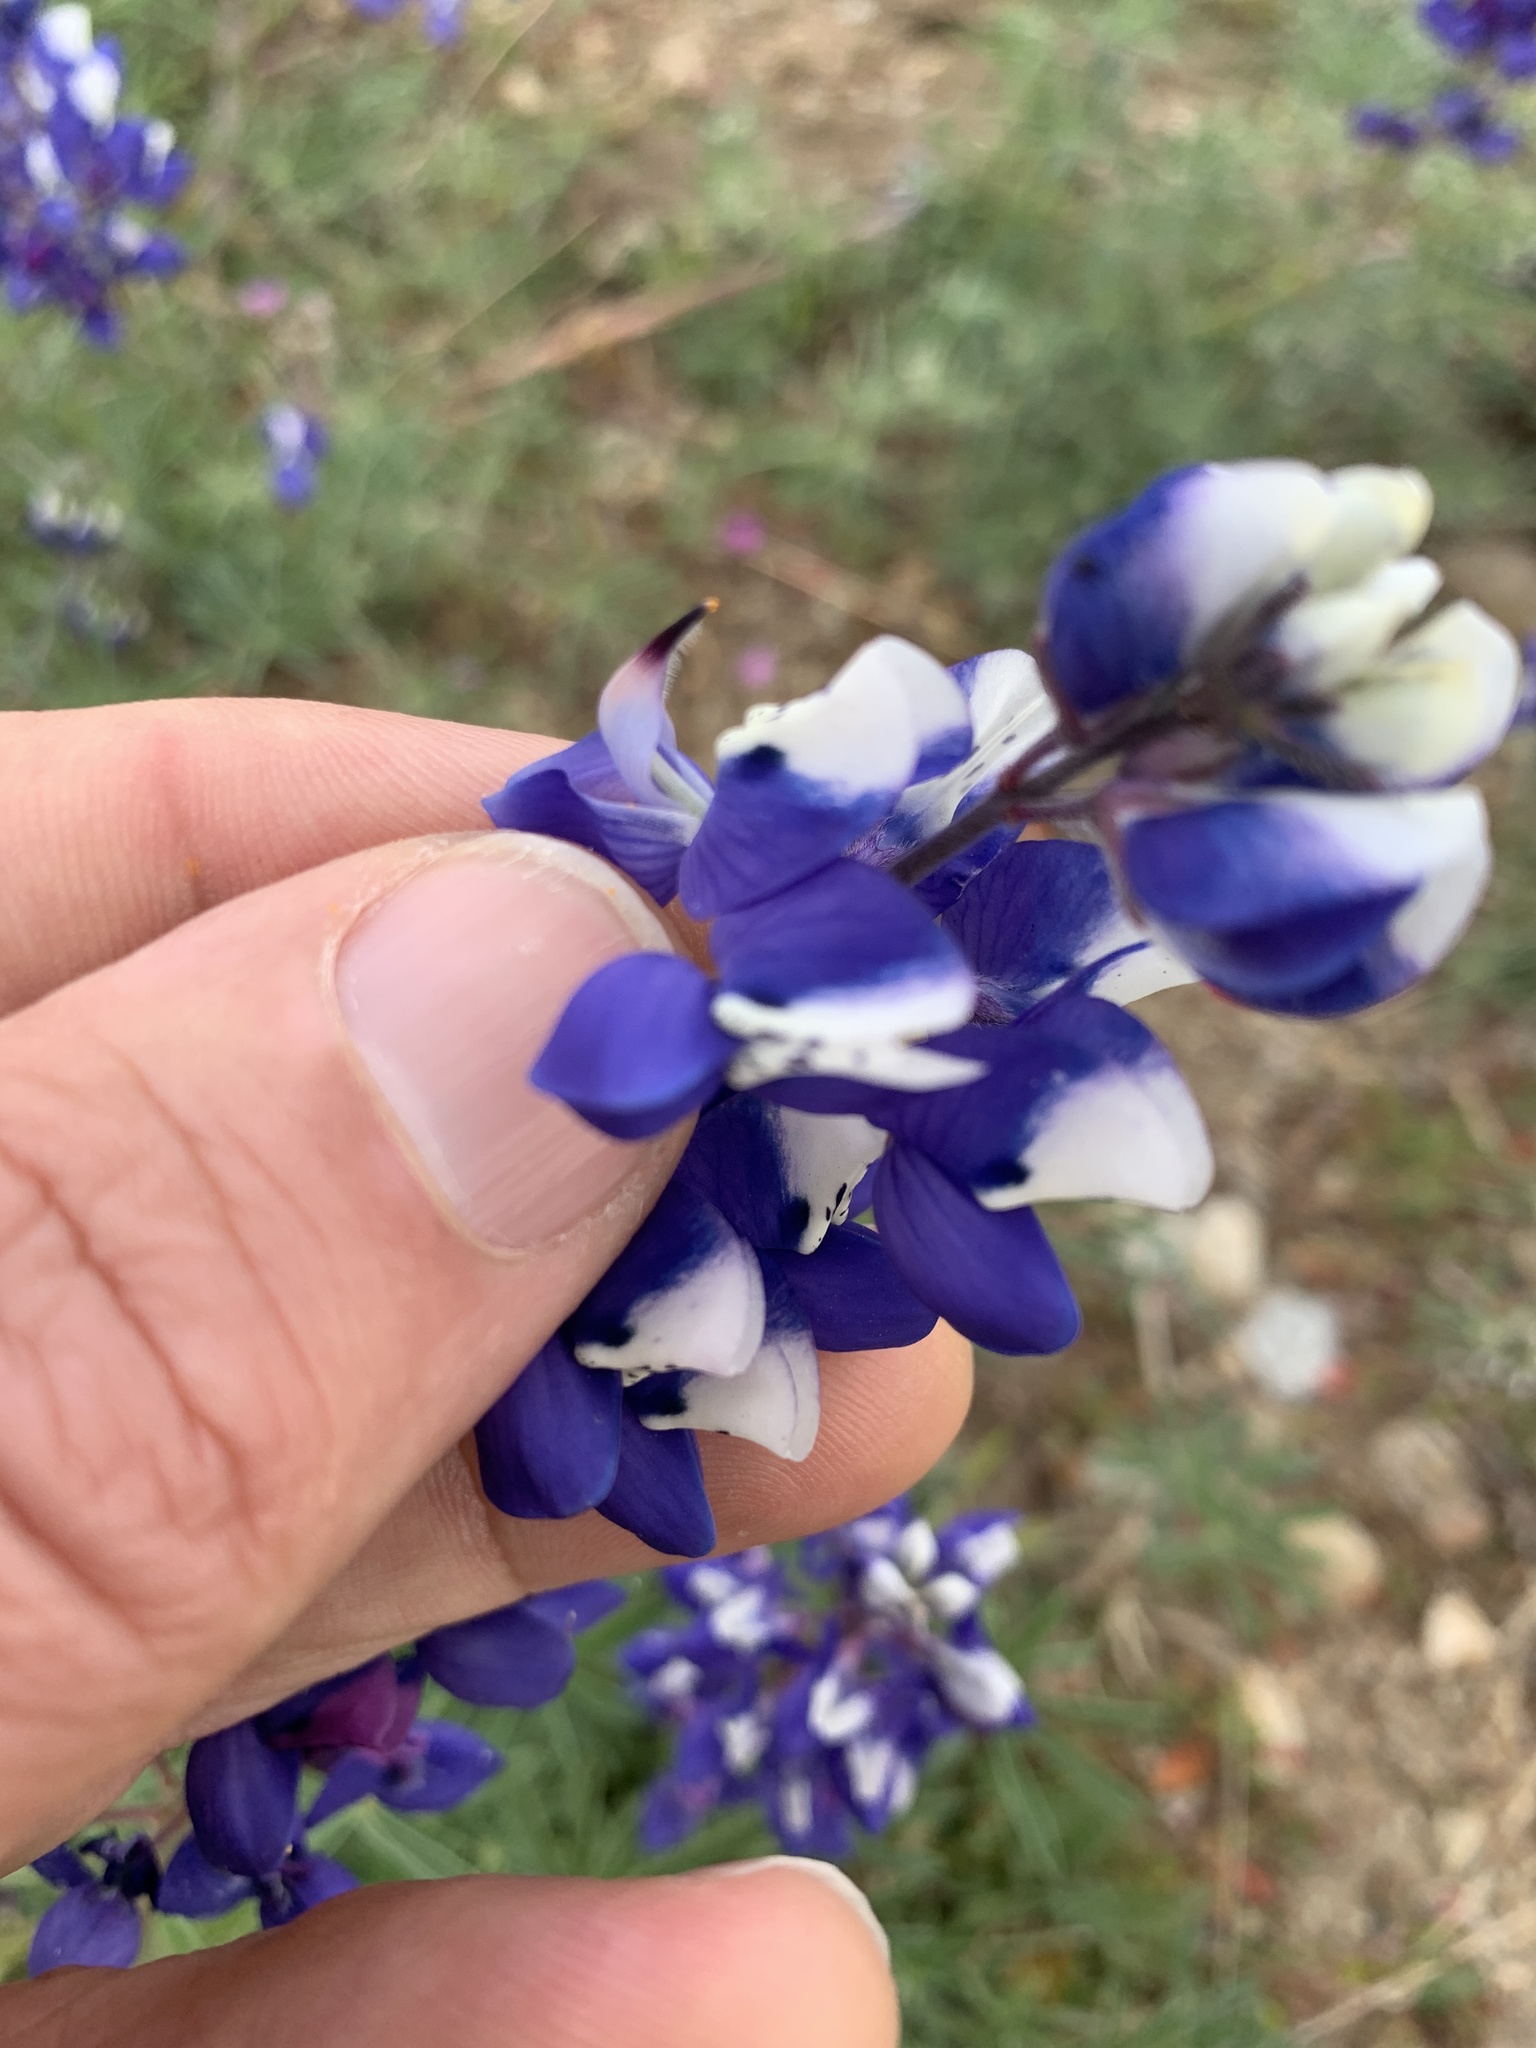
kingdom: Plantae
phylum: Tracheophyta
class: Magnoliopsida
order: Fabales
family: Fabaceae
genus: Lupinus
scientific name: Lupinus nanus
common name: Orean blue lupin
